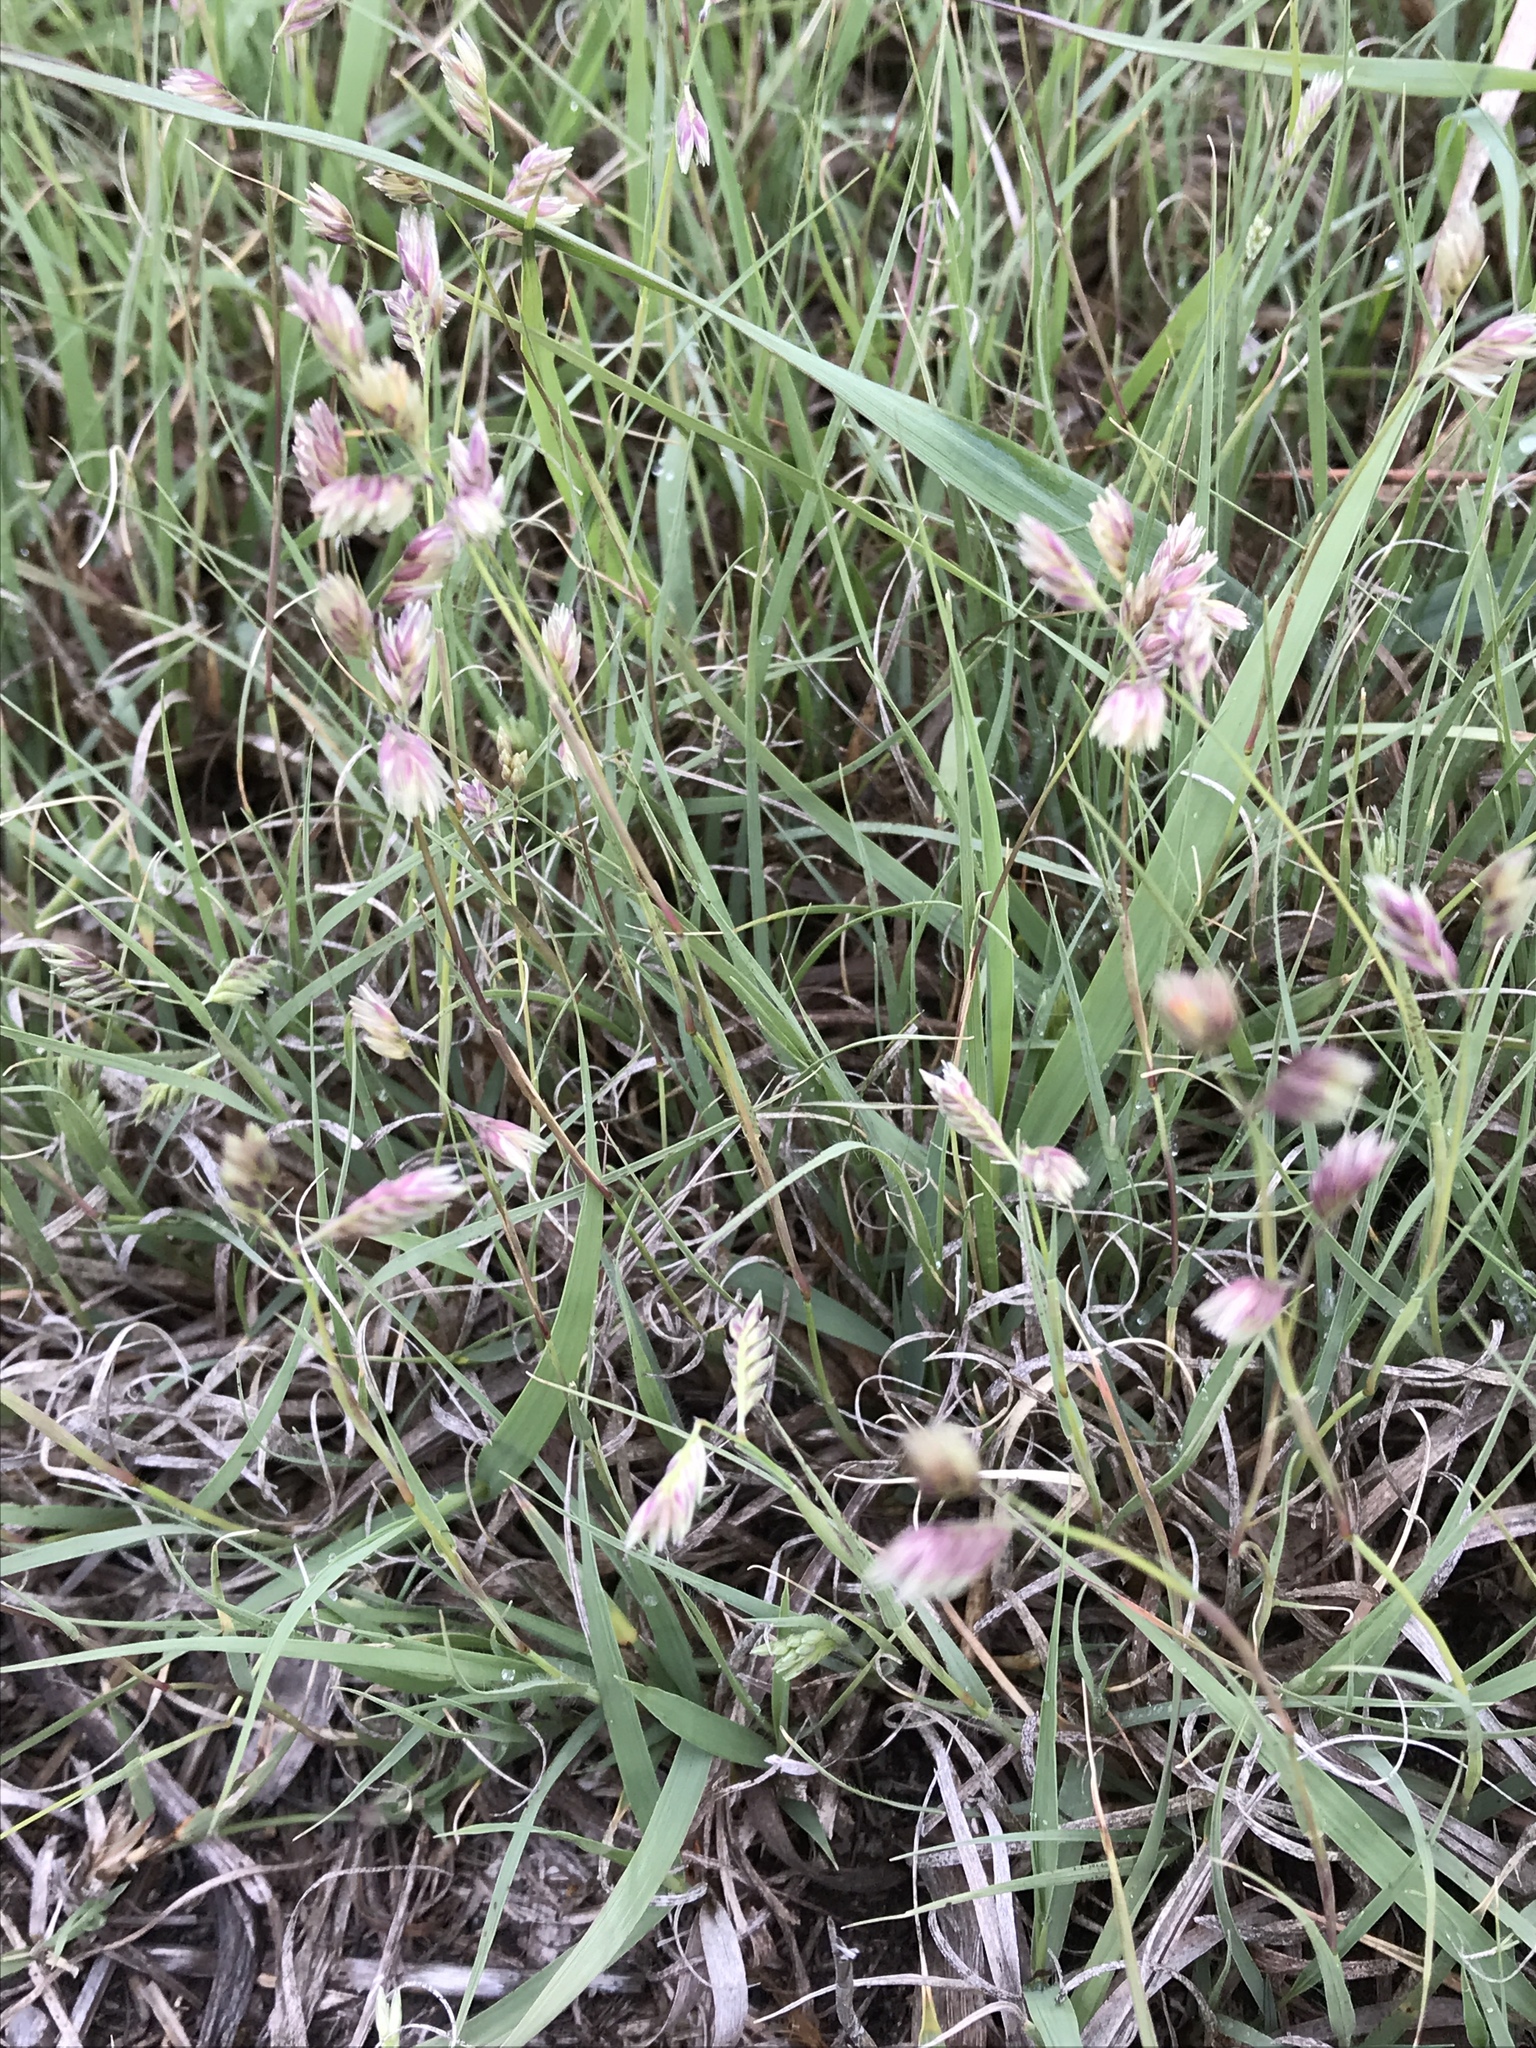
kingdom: Plantae
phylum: Tracheophyta
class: Liliopsida
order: Poales
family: Poaceae
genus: Bouteloua
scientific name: Bouteloua dactyloides
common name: Buffalo grass
